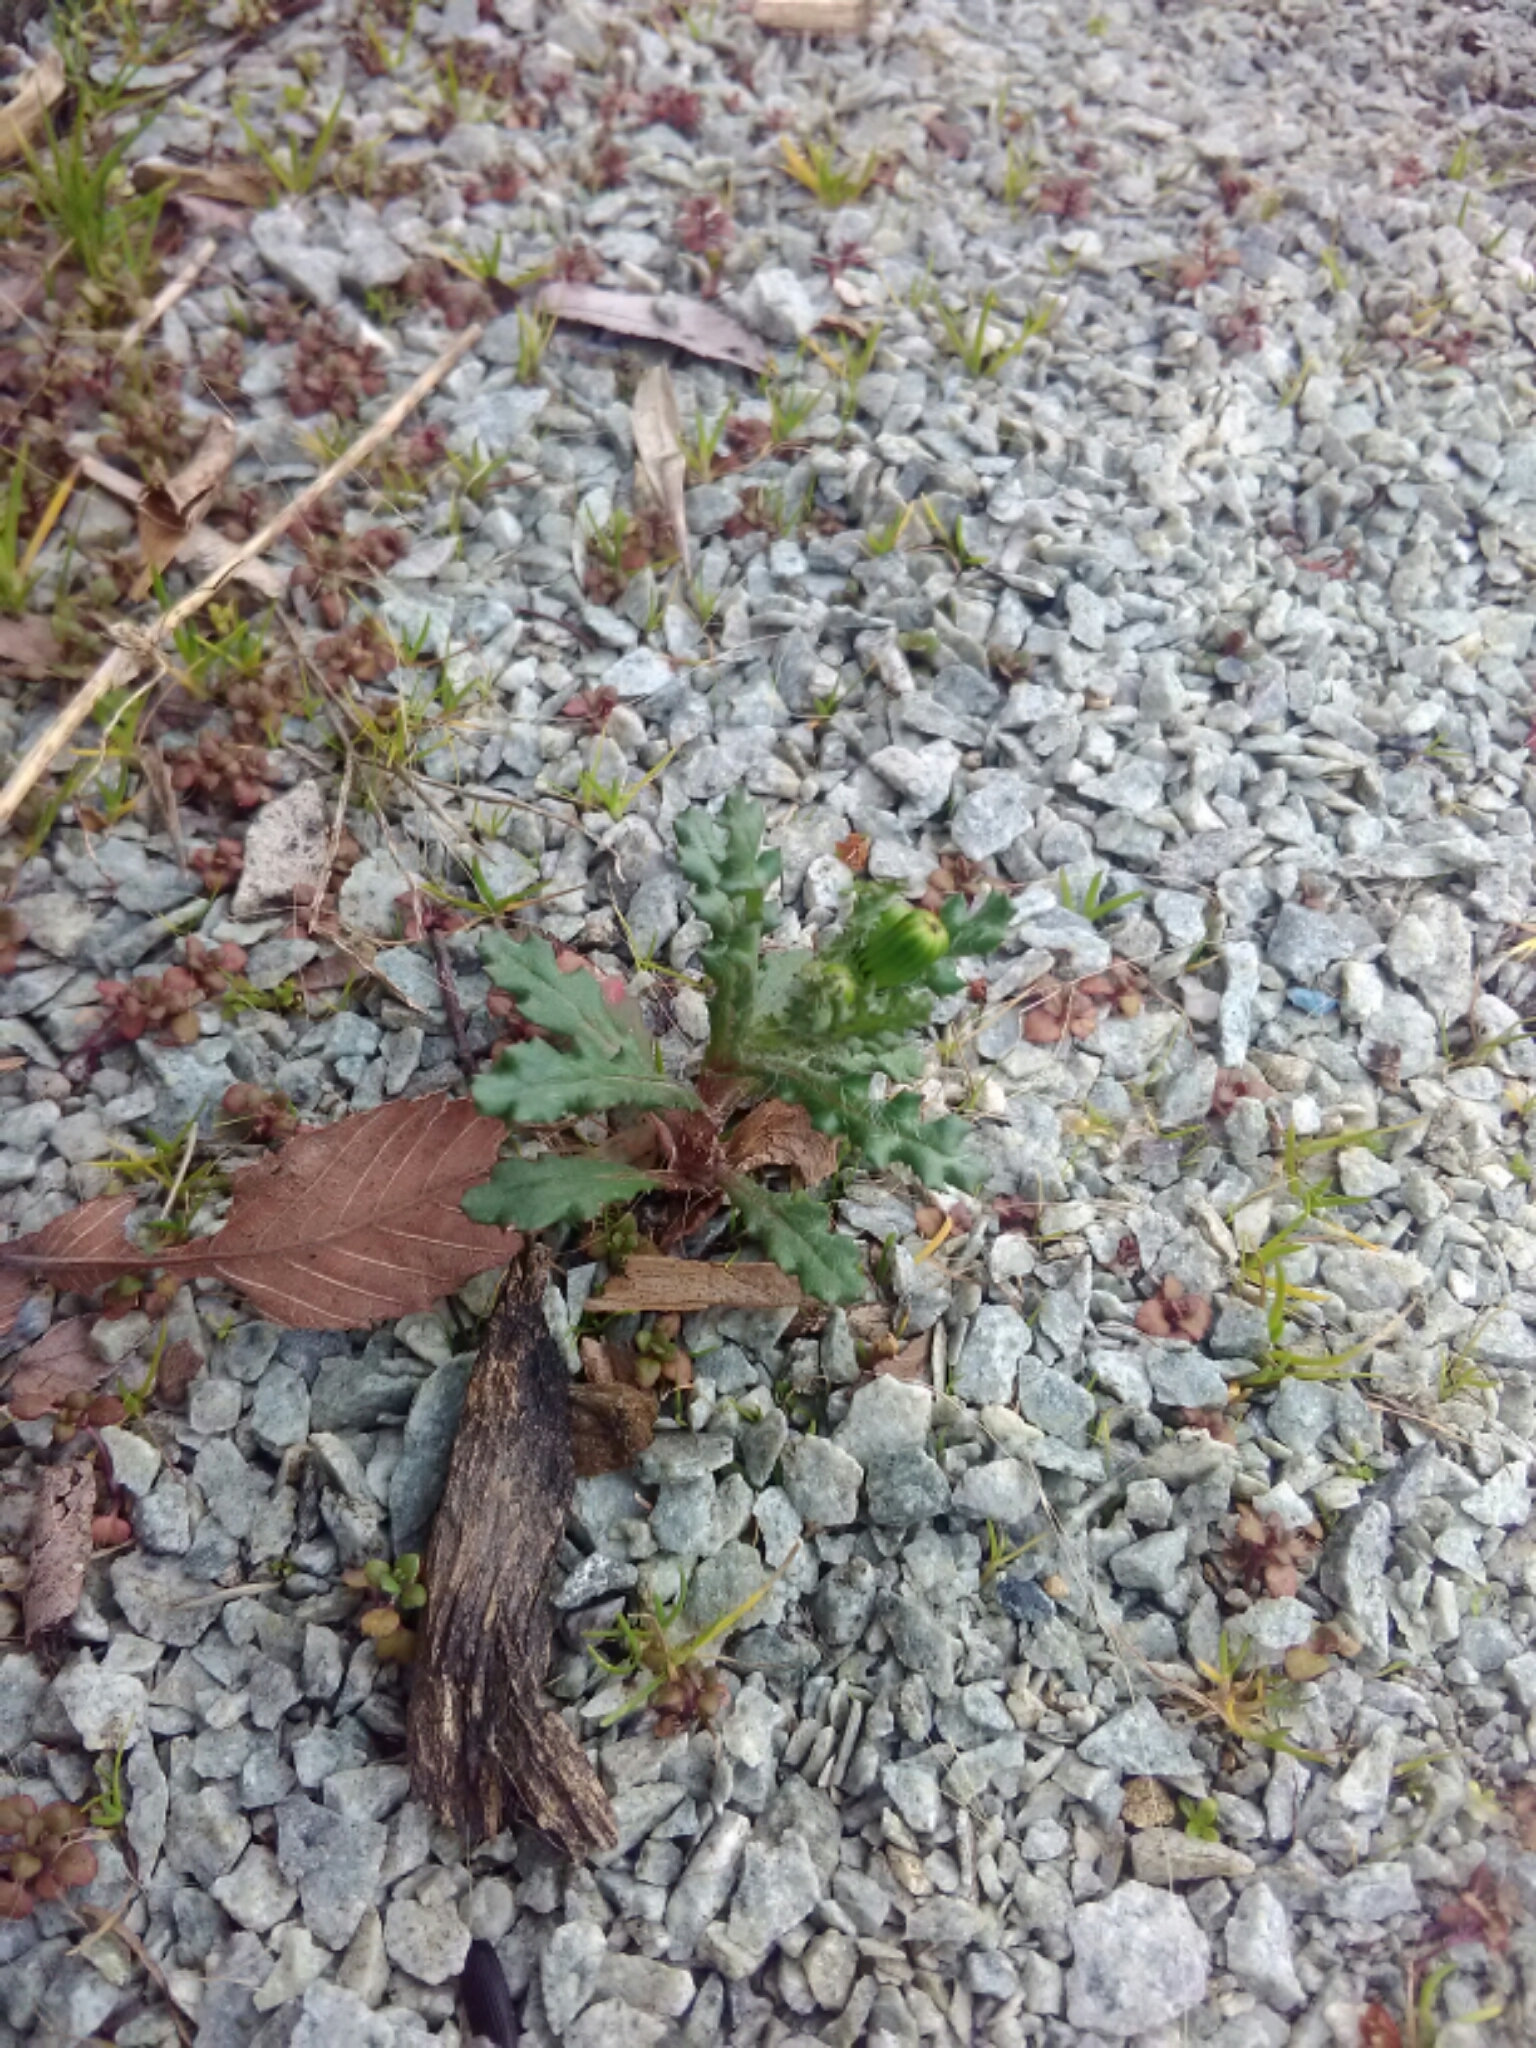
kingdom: Plantae
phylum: Tracheophyta
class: Magnoliopsida
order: Asterales
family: Asteraceae
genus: Senecio
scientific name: Senecio vulgaris
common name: Old-man-in-the-spring
